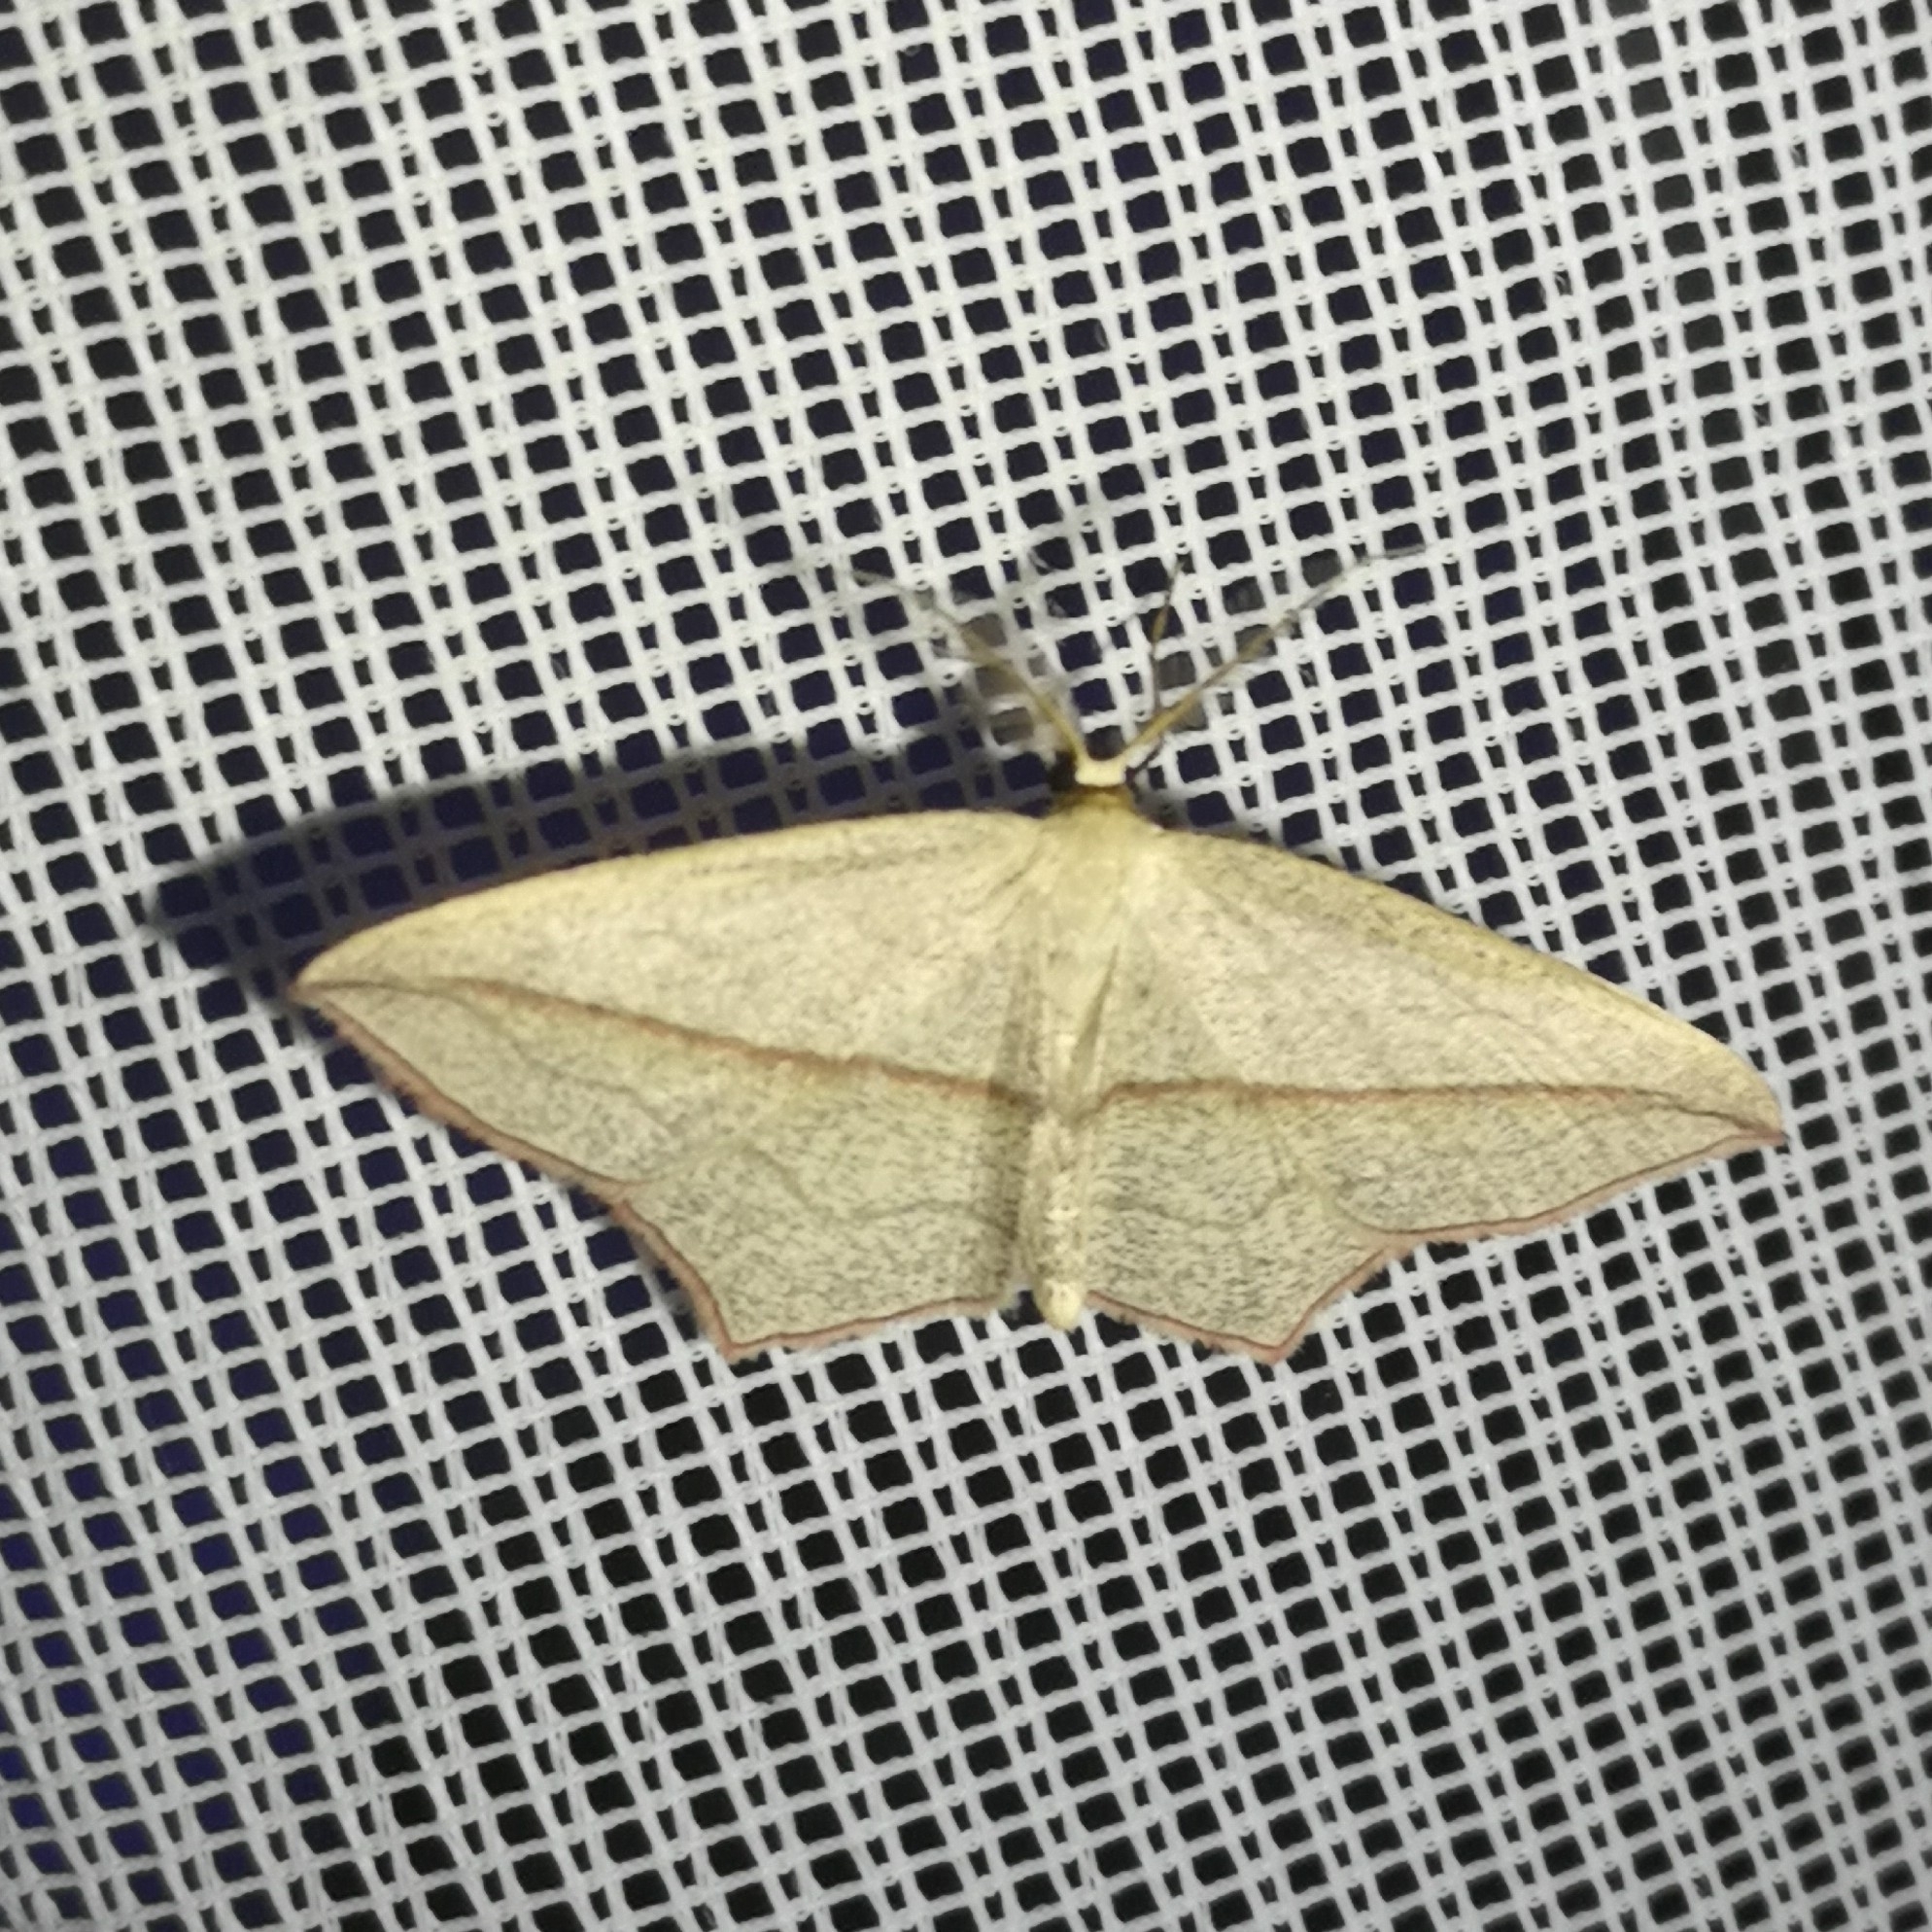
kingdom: Animalia
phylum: Arthropoda
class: Insecta
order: Lepidoptera
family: Geometridae
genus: Timandra
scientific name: Timandra comae
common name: Blood-vein
